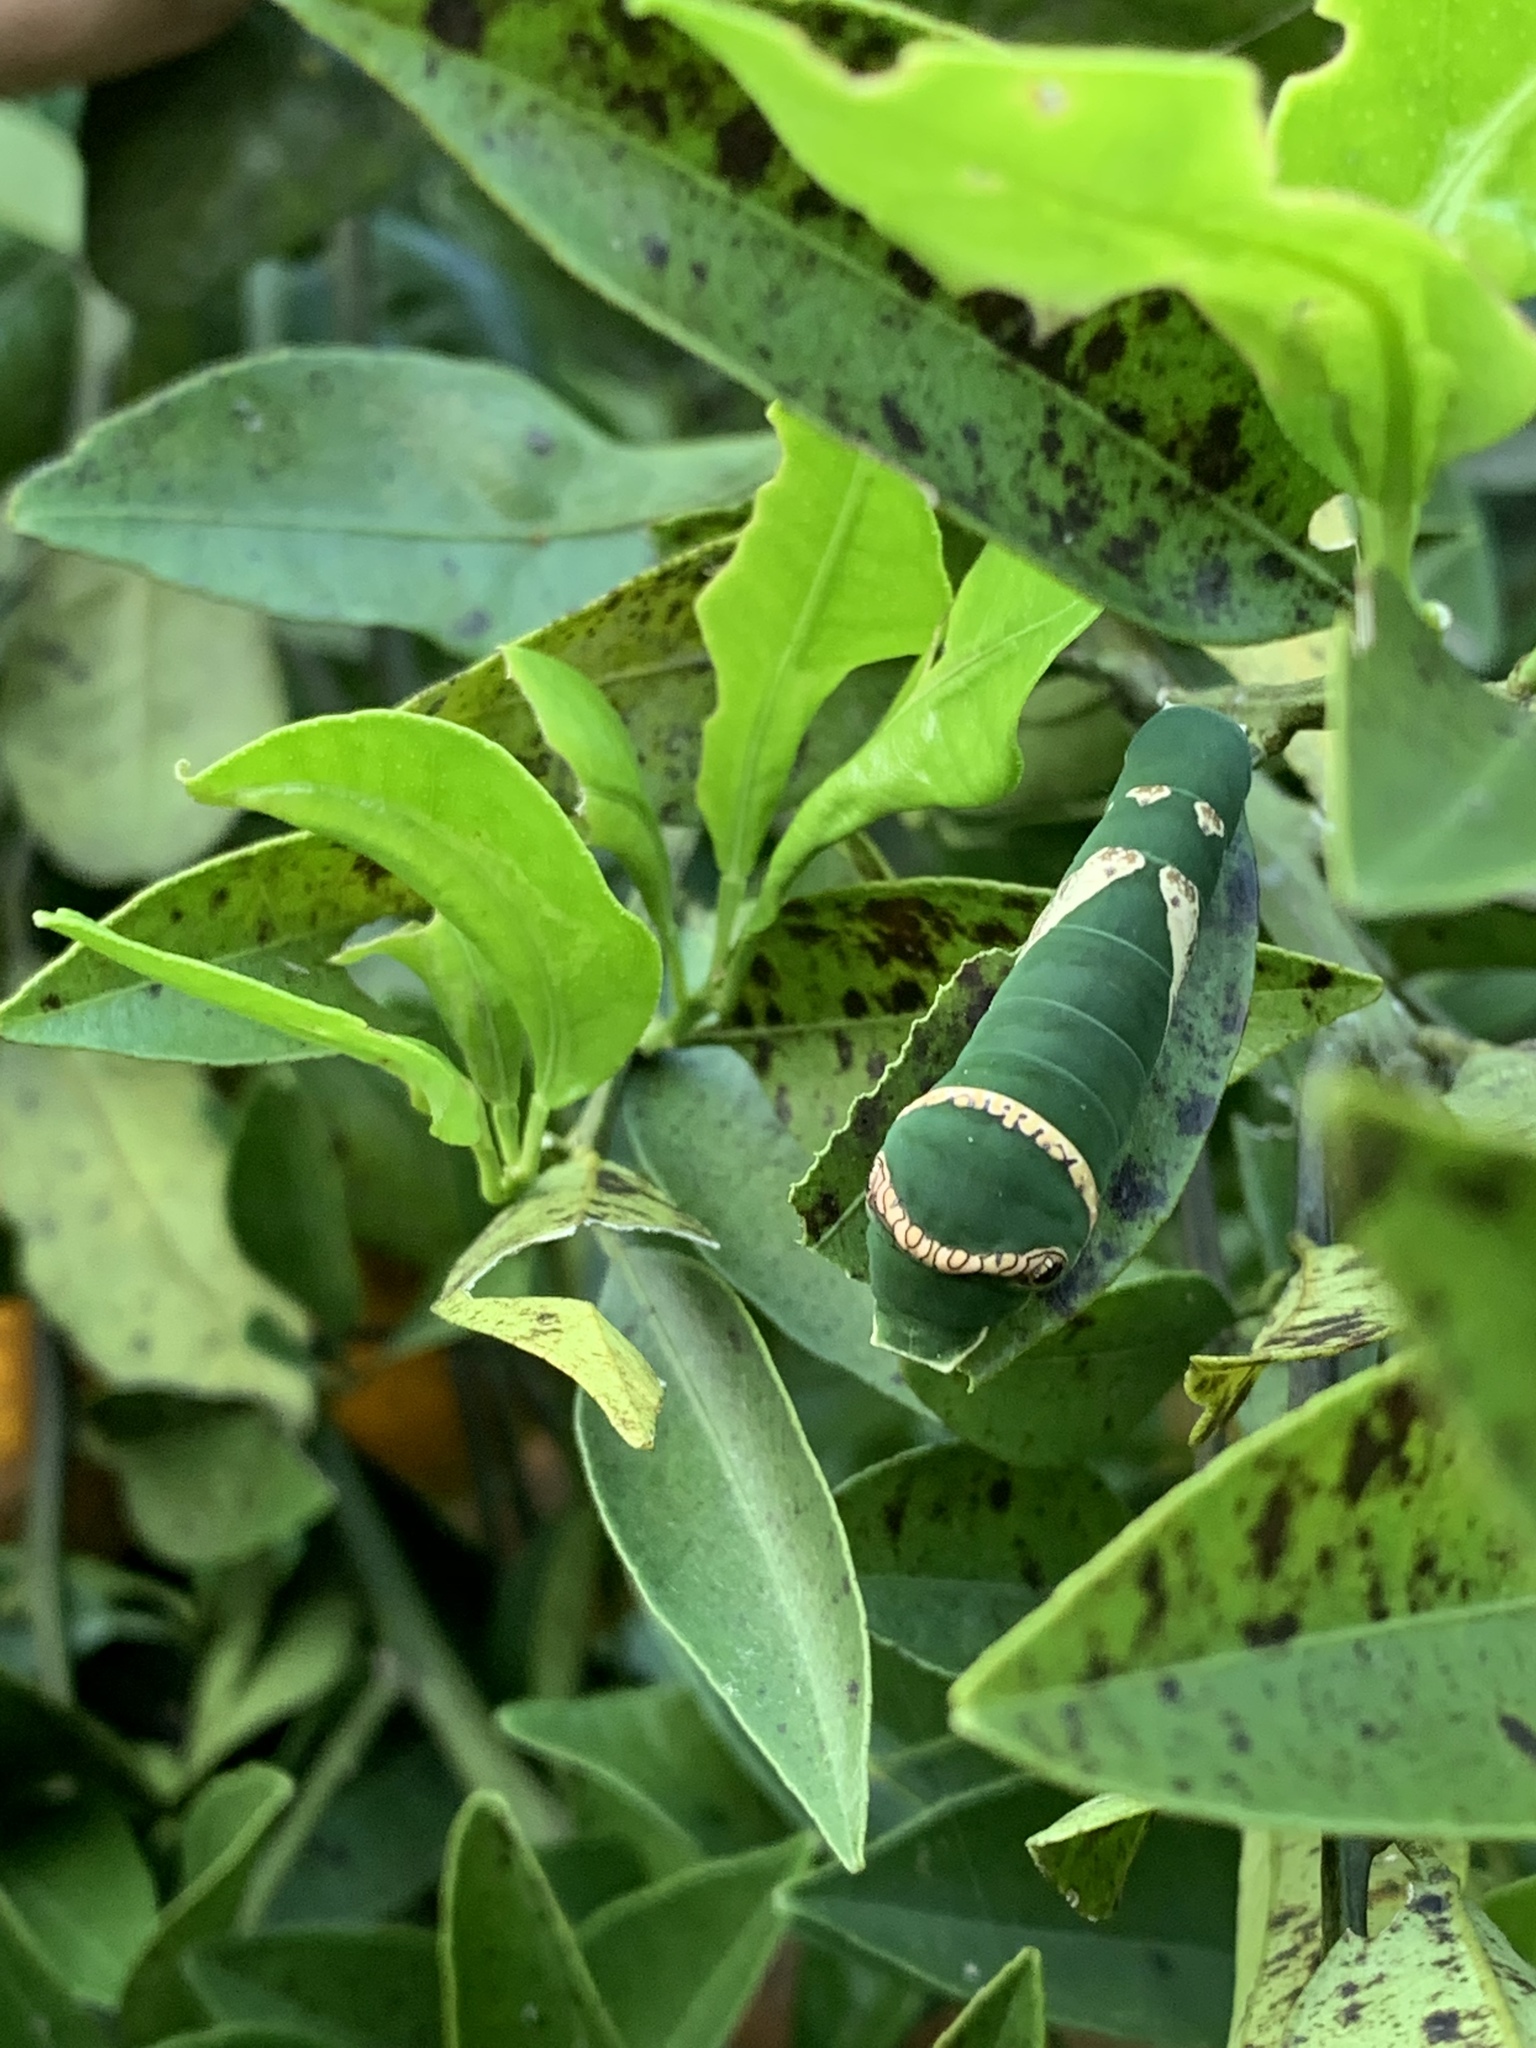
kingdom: Animalia
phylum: Arthropoda
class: Insecta
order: Lepidoptera
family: Papilionidae
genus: Papilio
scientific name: Papilio polytes
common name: Common mormon
